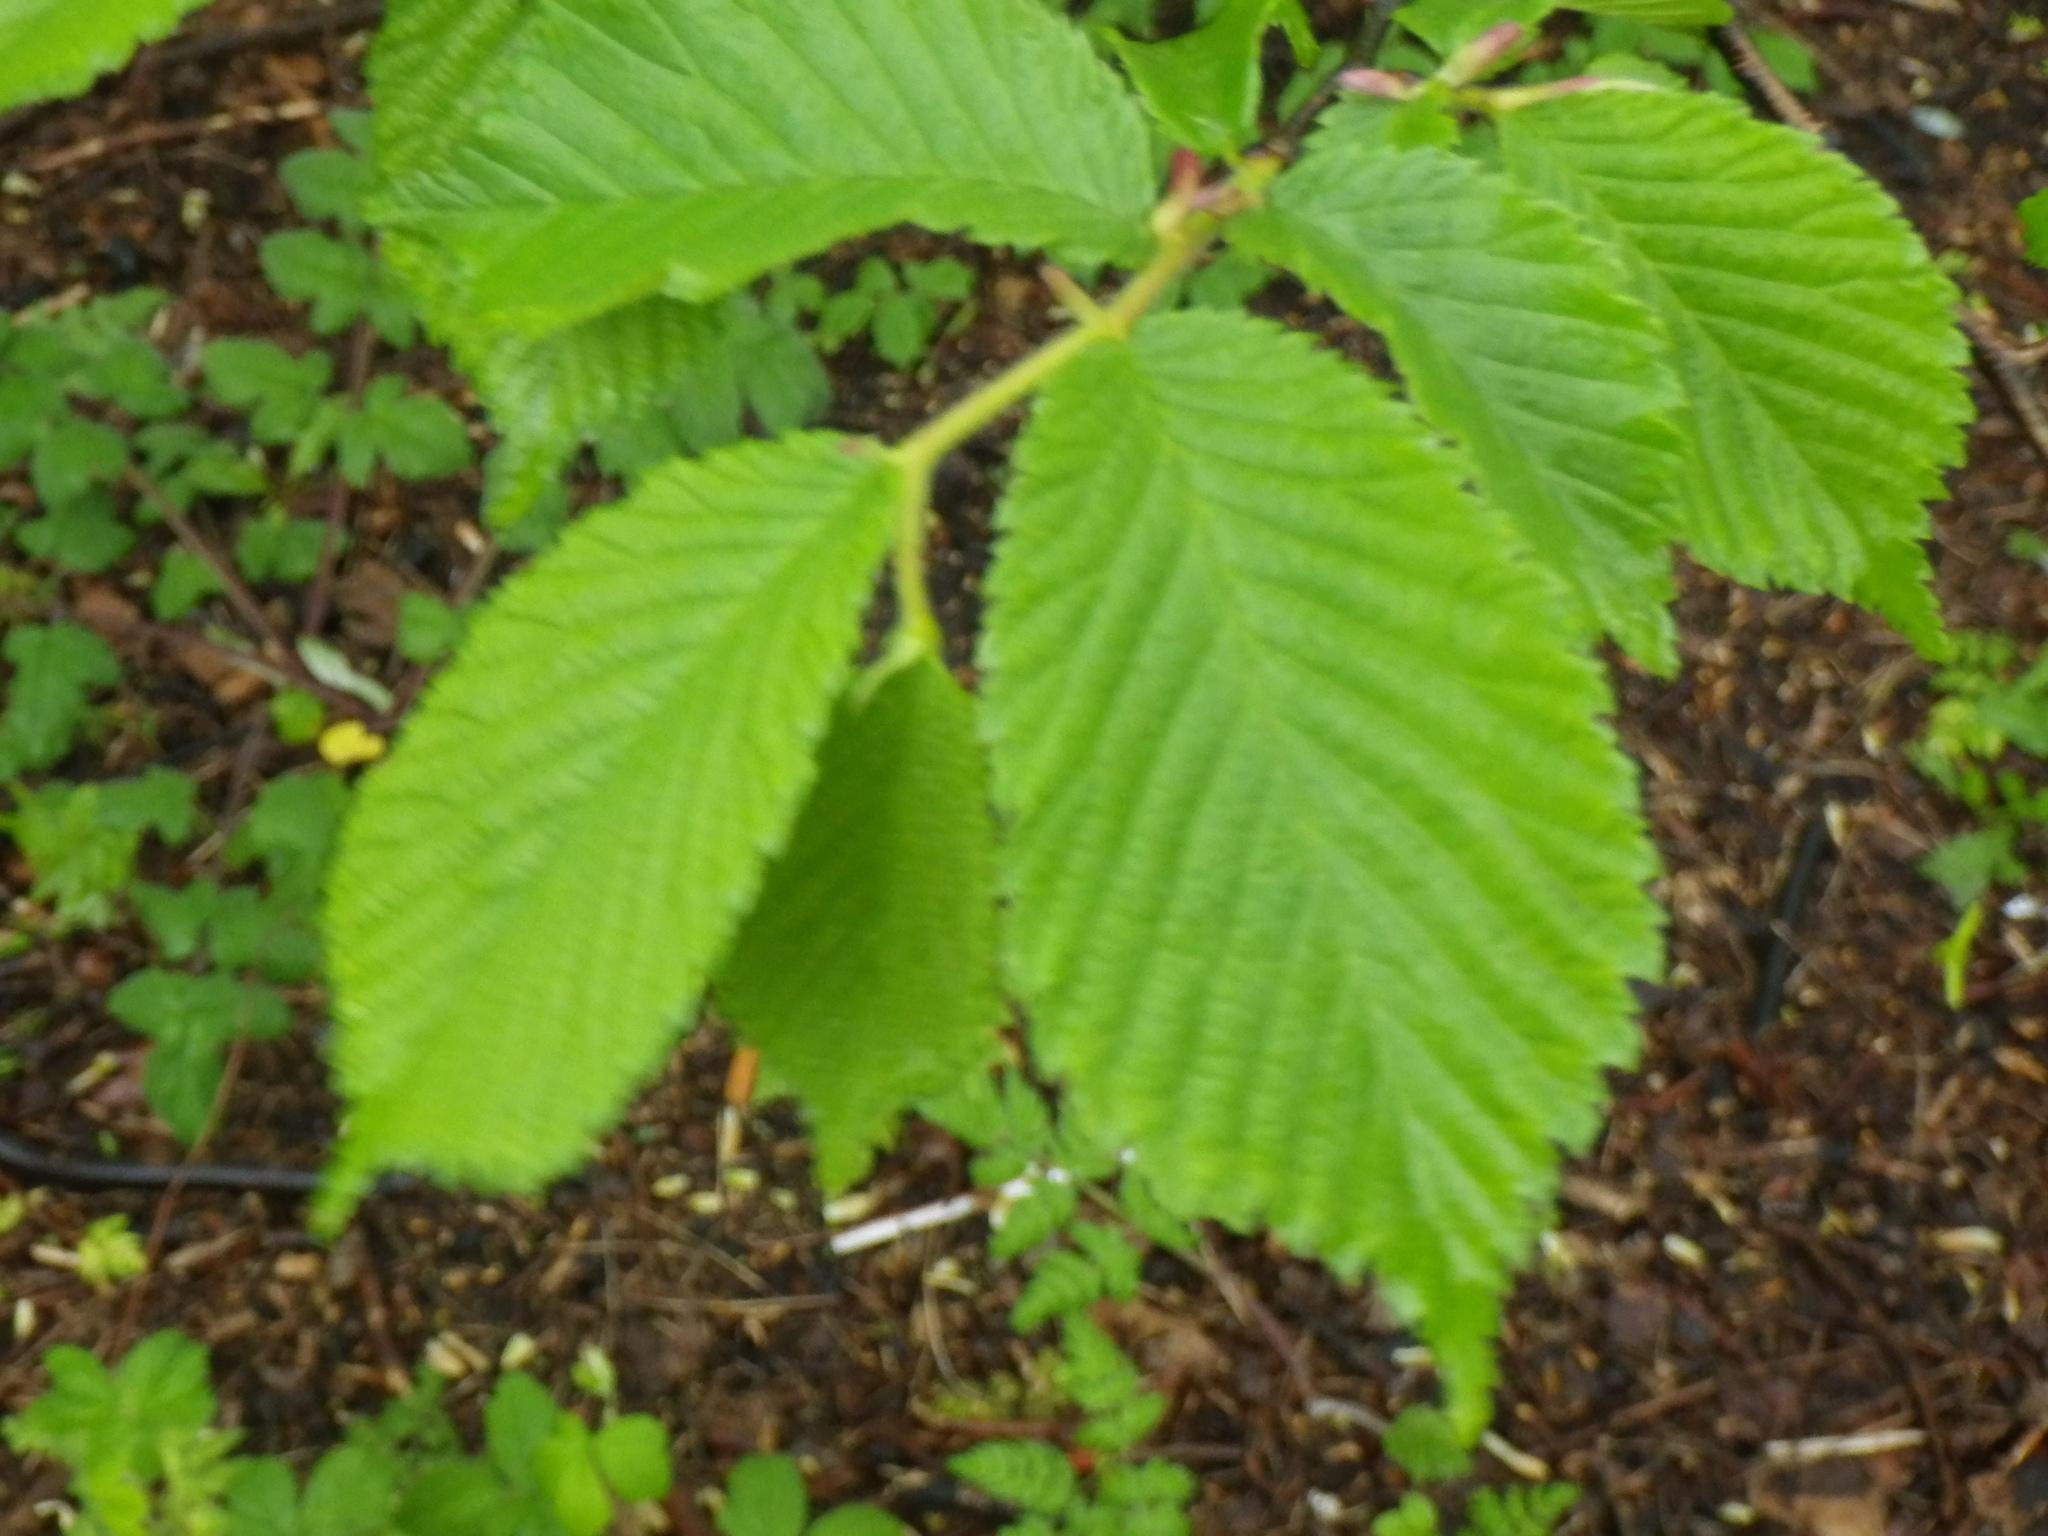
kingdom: Plantae
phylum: Tracheophyta
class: Magnoliopsida
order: Rosales
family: Ulmaceae
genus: Ulmus
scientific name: Ulmus glabra
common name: Wych elm
